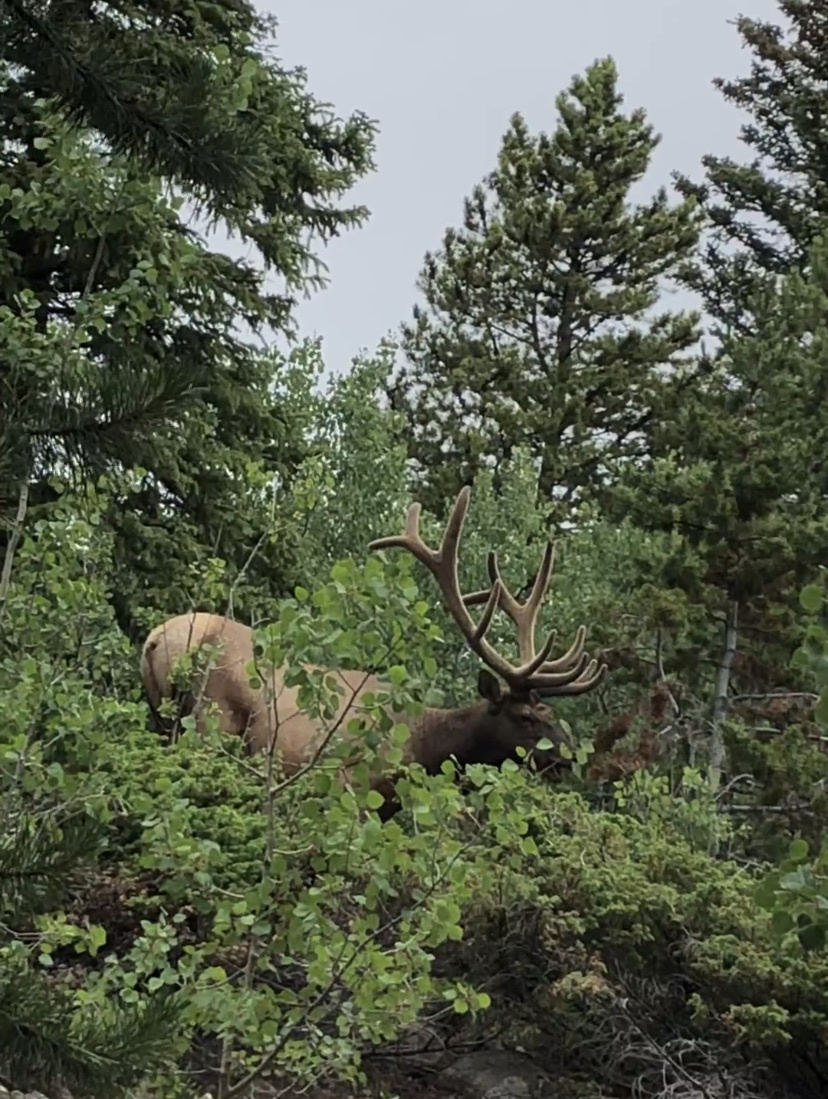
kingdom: Animalia
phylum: Chordata
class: Mammalia
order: Artiodactyla
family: Cervidae
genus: Cervus
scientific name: Cervus elaphus
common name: Red deer
